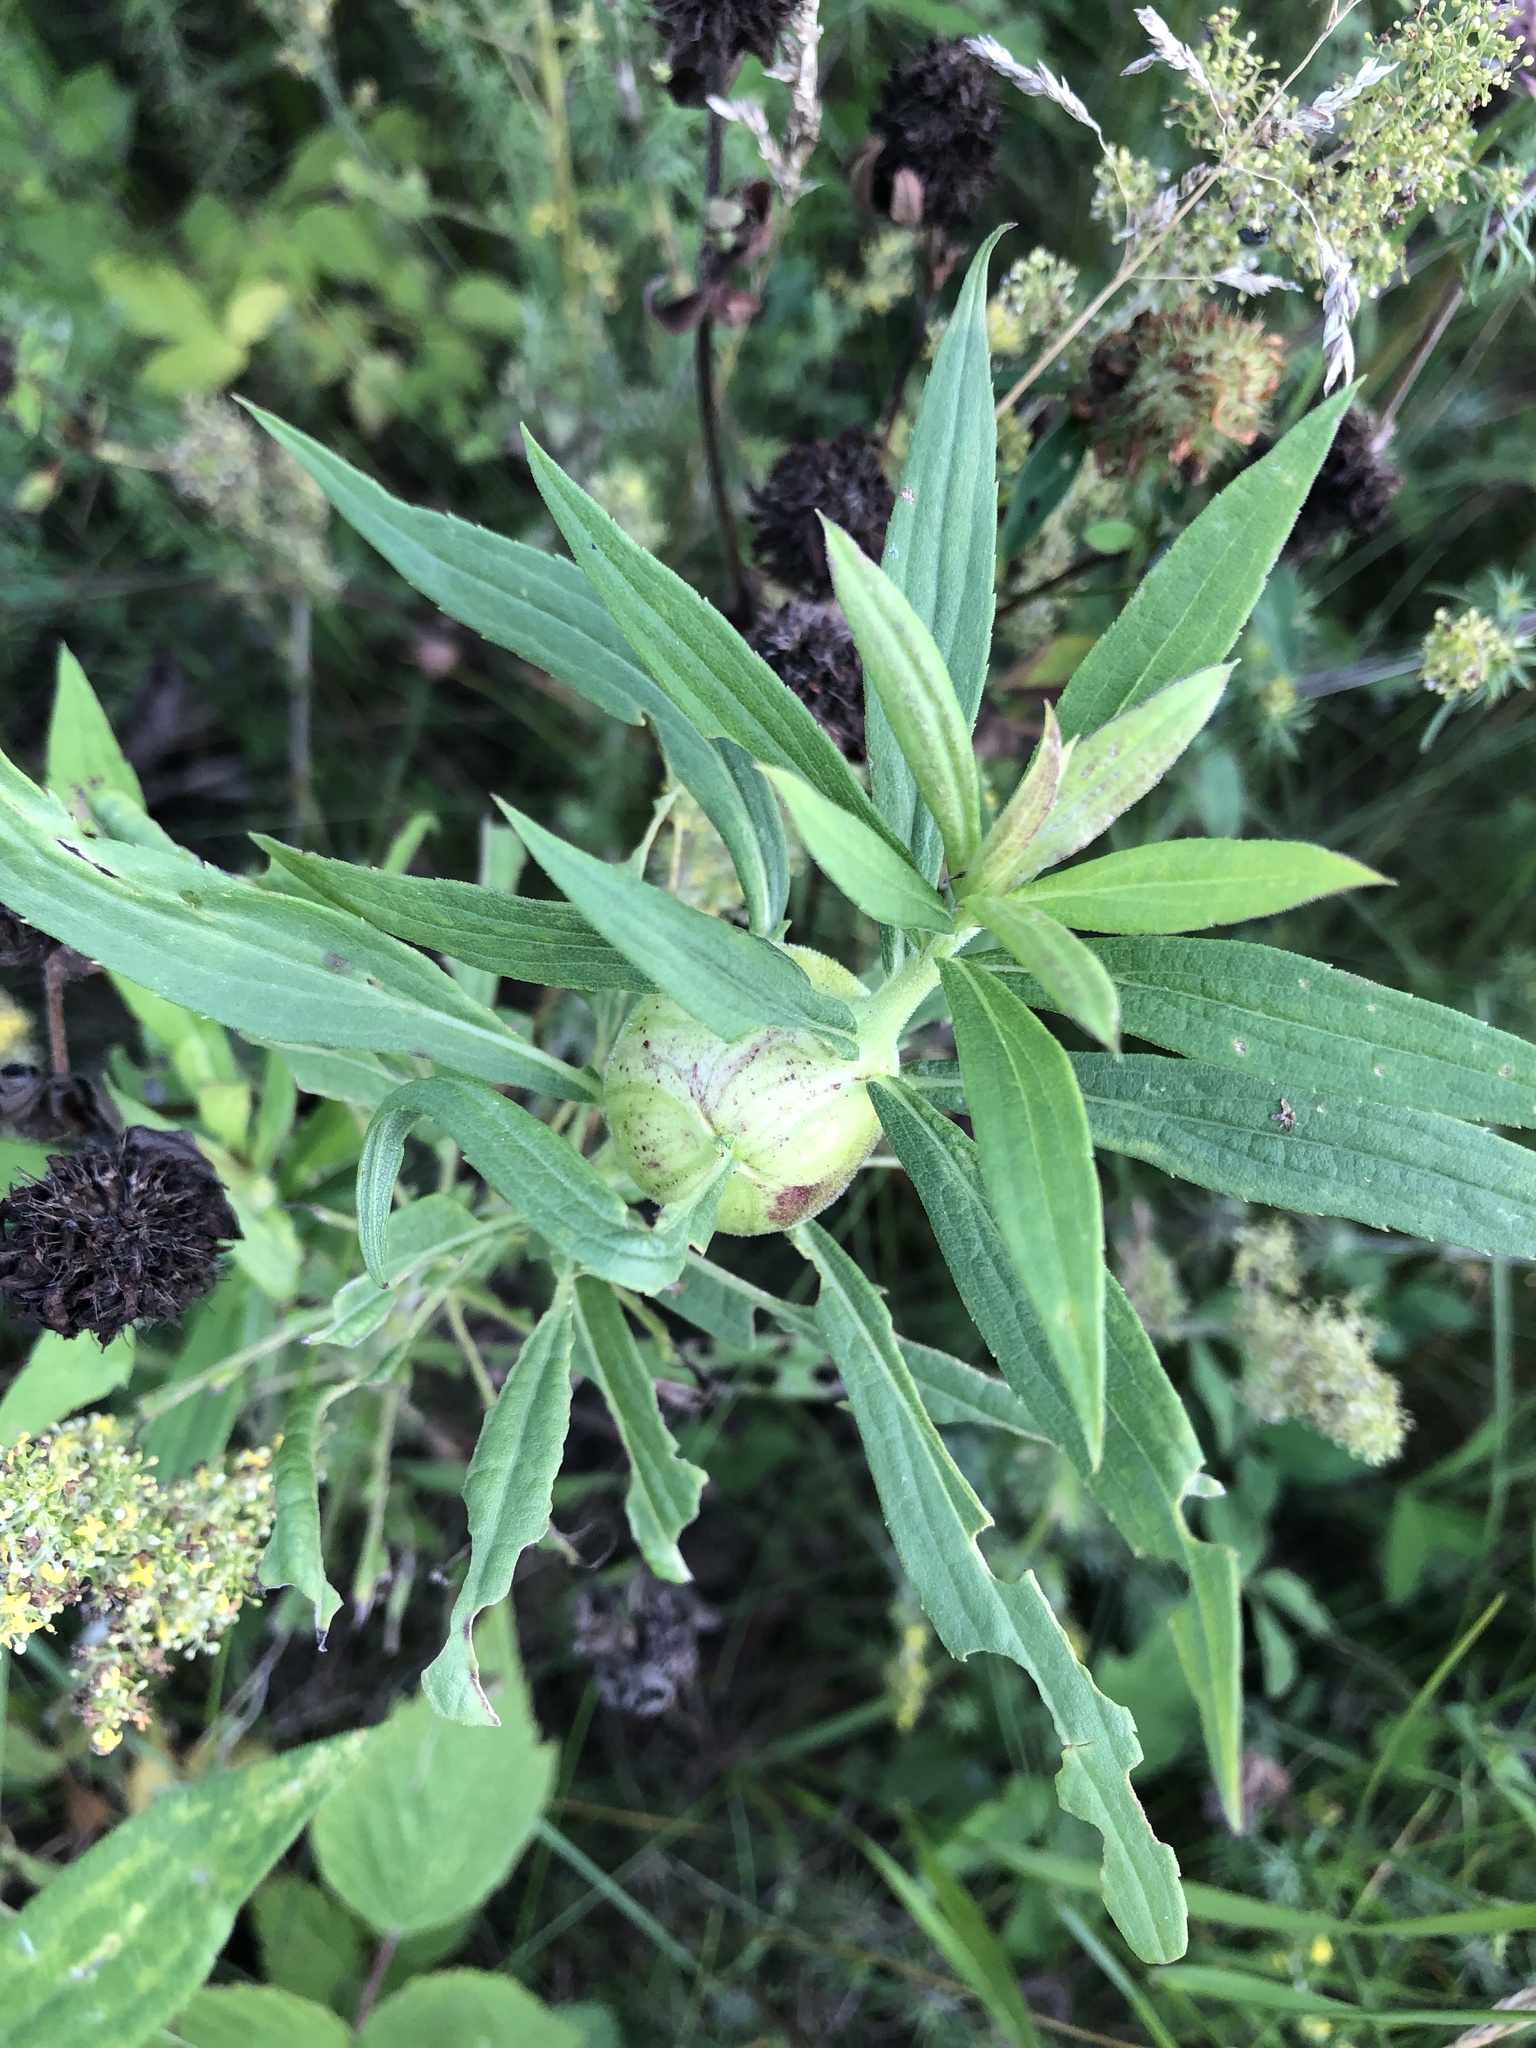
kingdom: Animalia
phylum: Arthropoda
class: Insecta
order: Diptera
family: Tephritidae
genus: Eurosta
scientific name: Eurosta solidaginis
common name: Goldenrod gall fly
